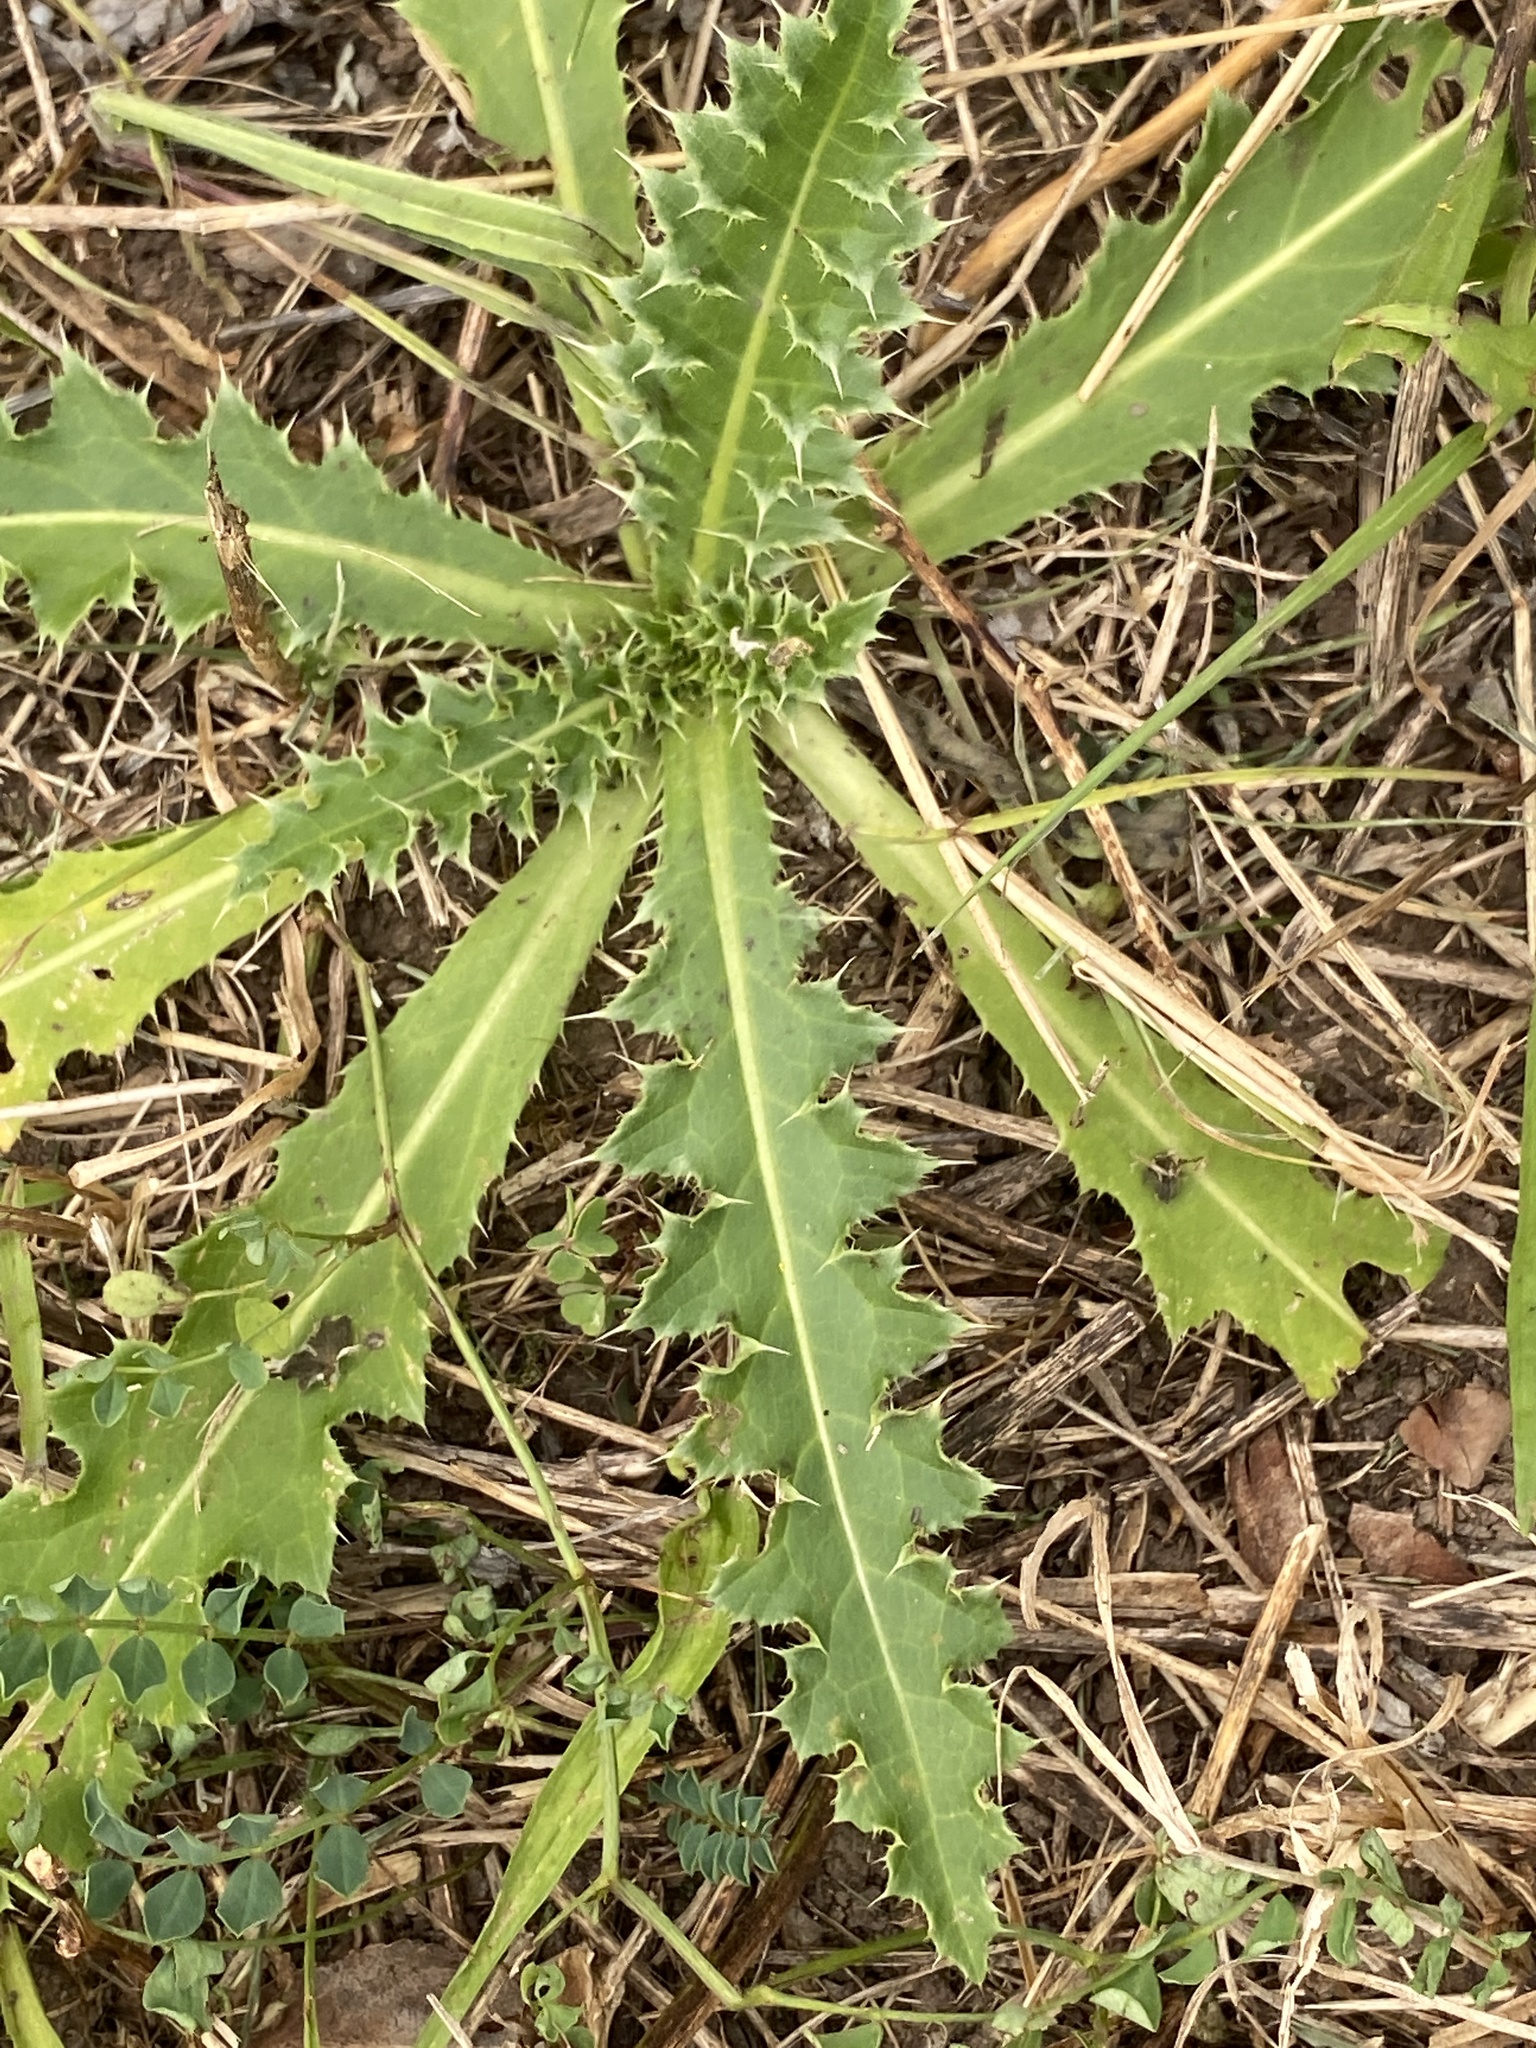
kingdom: Plantae
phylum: Tracheophyta
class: Magnoliopsida
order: Asterales
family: Asteraceae
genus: Carduus
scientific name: Carduus nutans
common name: Musk thistle
